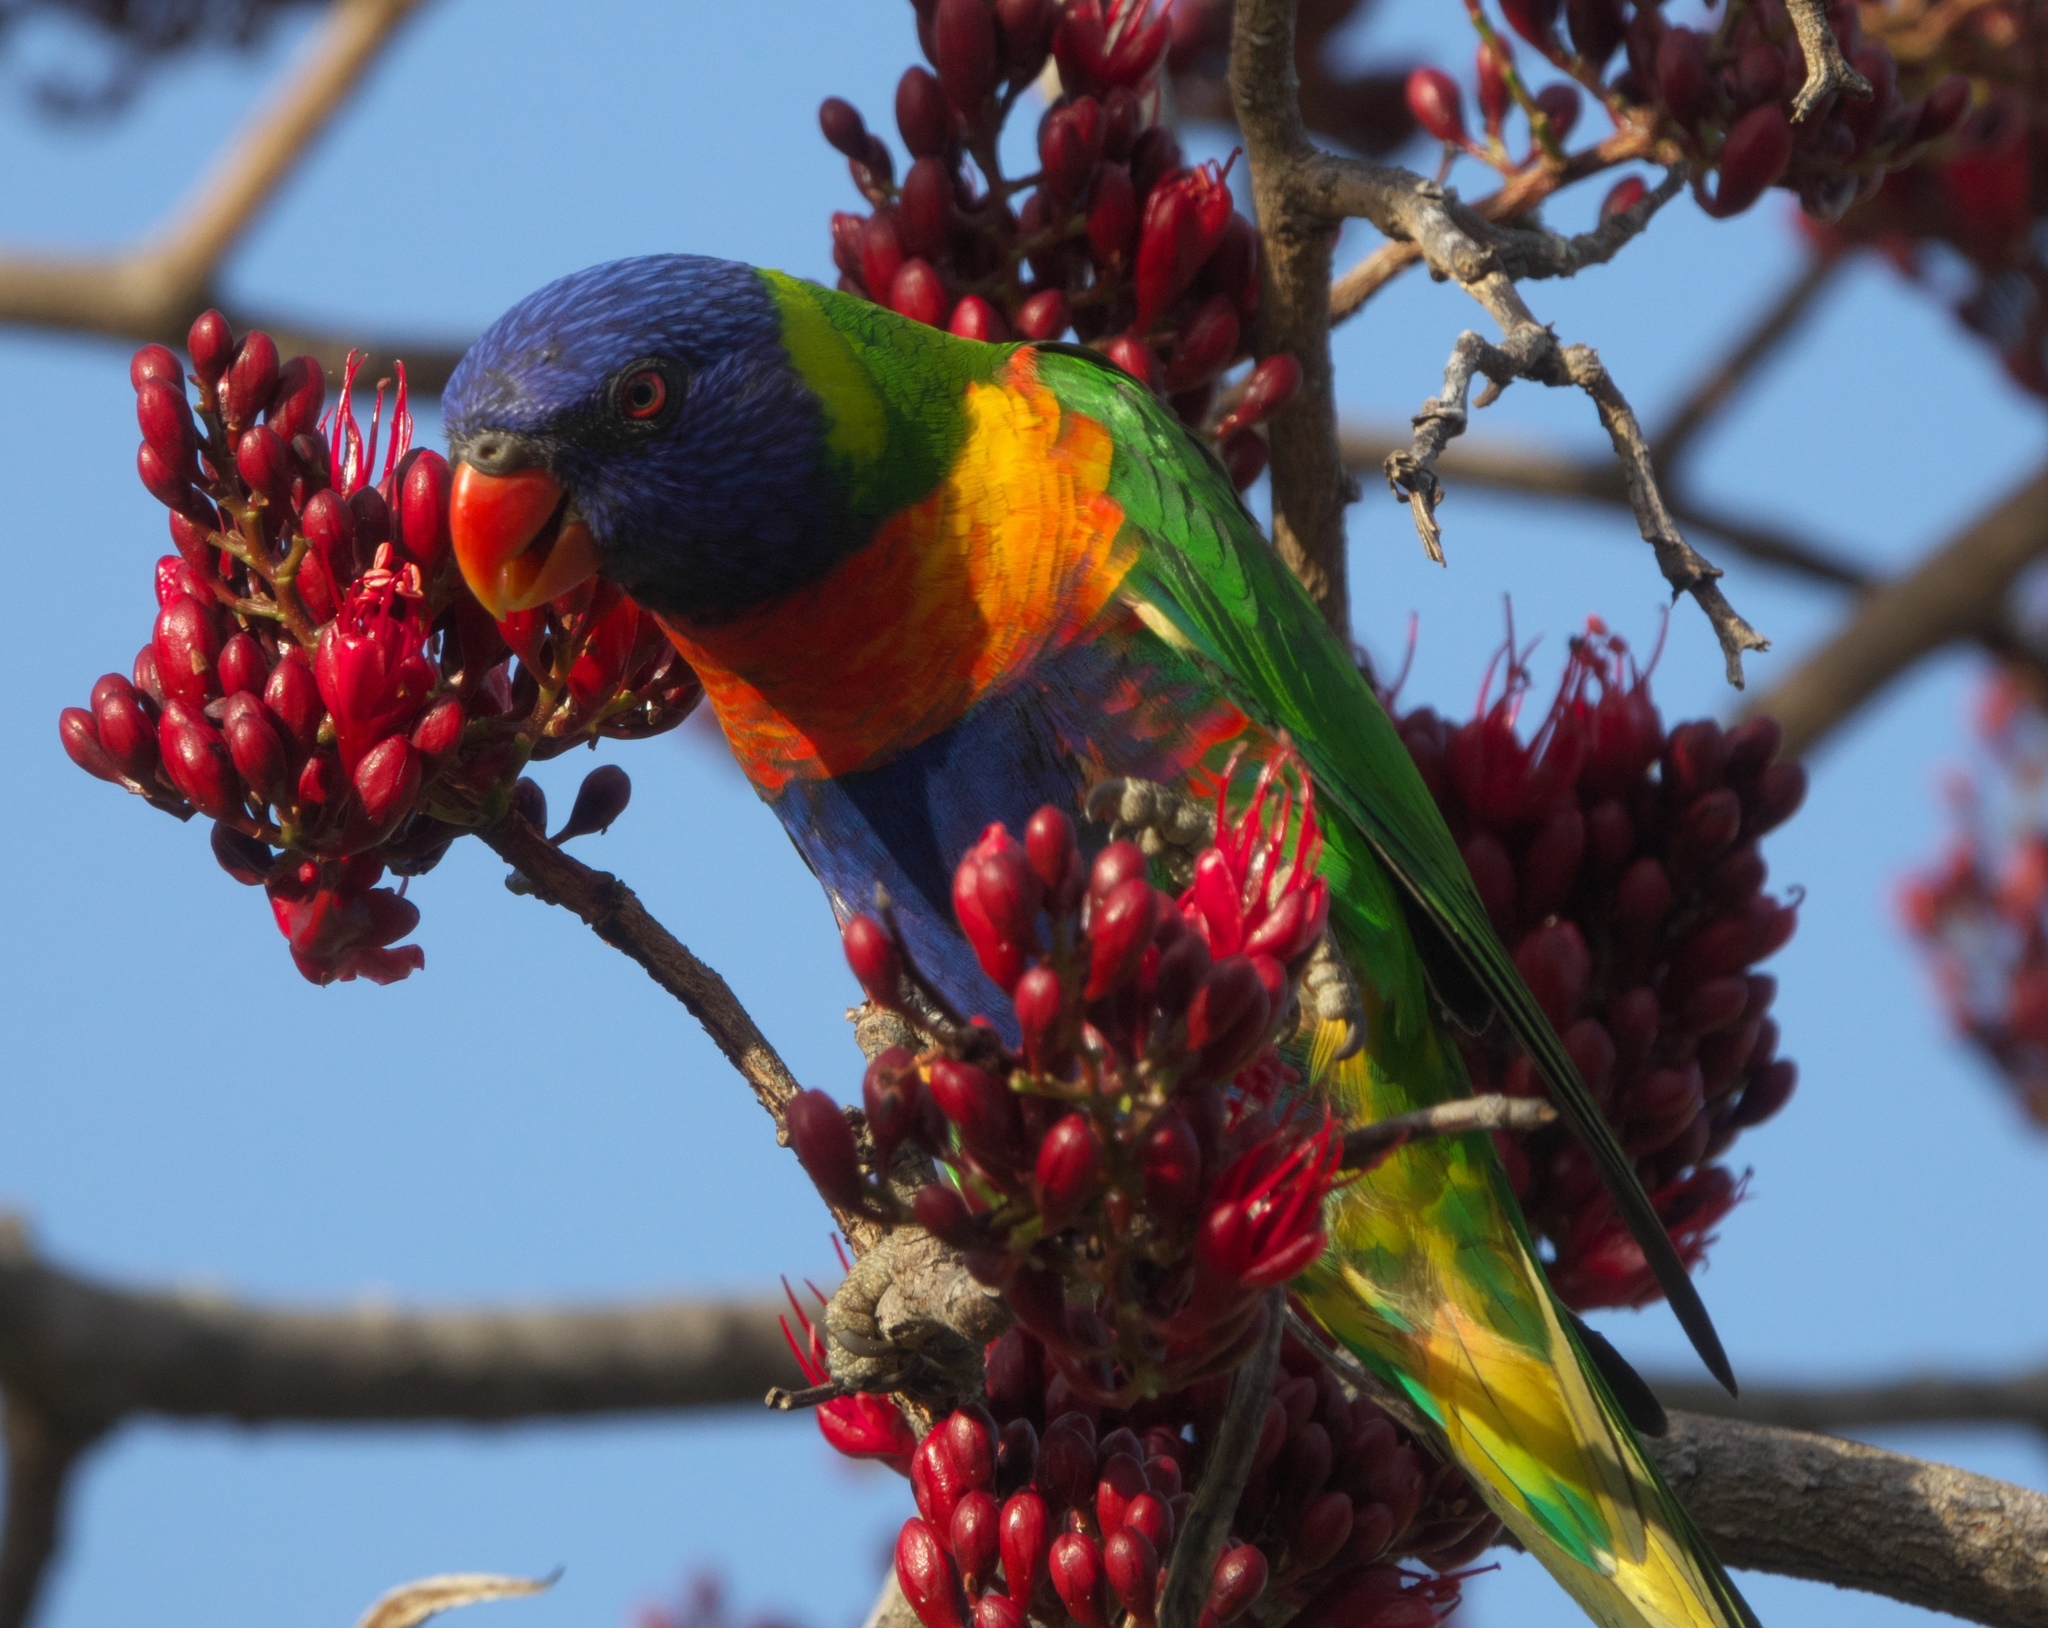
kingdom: Animalia
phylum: Chordata
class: Aves
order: Psittaciformes
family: Psittacidae
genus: Trichoglossus
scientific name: Trichoglossus haematodus
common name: Coconut lorikeet
